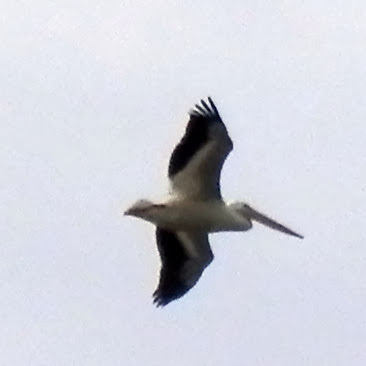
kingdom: Animalia
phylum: Chordata
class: Aves
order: Pelecaniformes
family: Pelecanidae
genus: Pelecanus
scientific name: Pelecanus erythrorhynchos
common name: American white pelican
